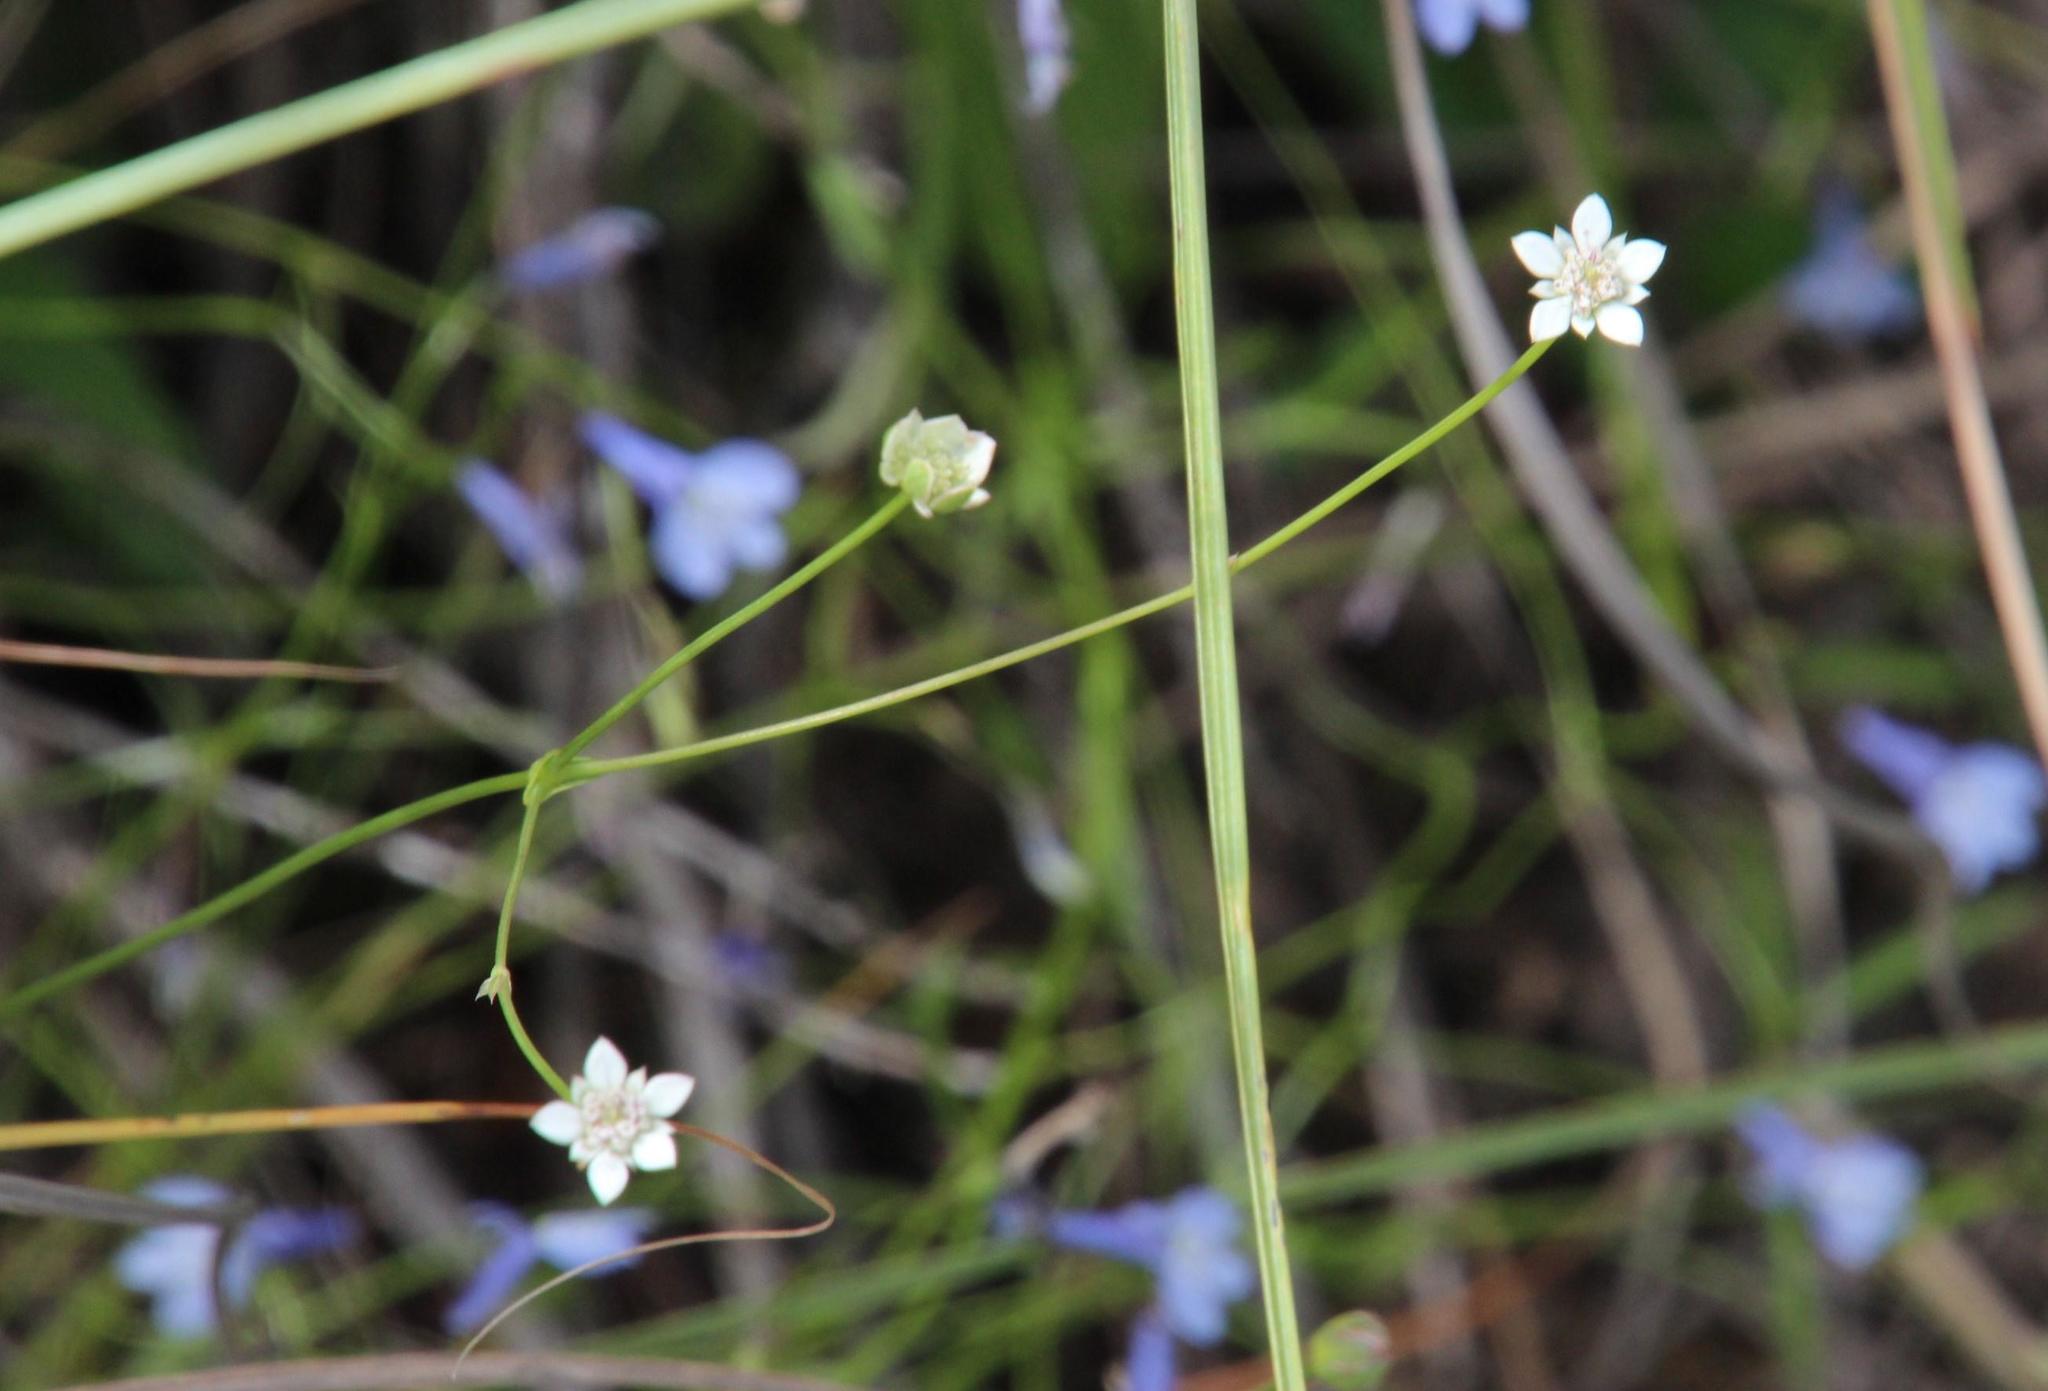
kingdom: Plantae
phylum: Tracheophyta
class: Magnoliopsida
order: Apiales
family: Apiaceae
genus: Alepidea
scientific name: Alepidea serrata
